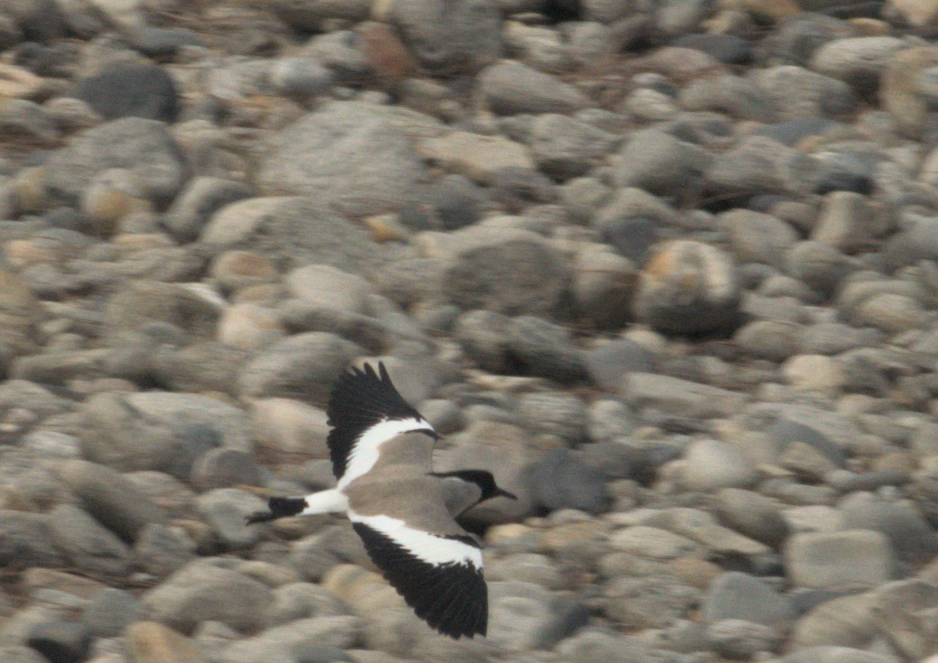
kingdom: Animalia
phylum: Chordata
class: Aves
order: Charadriiformes
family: Charadriidae
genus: Vanellus
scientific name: Vanellus duvaucelii
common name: River lapwing
